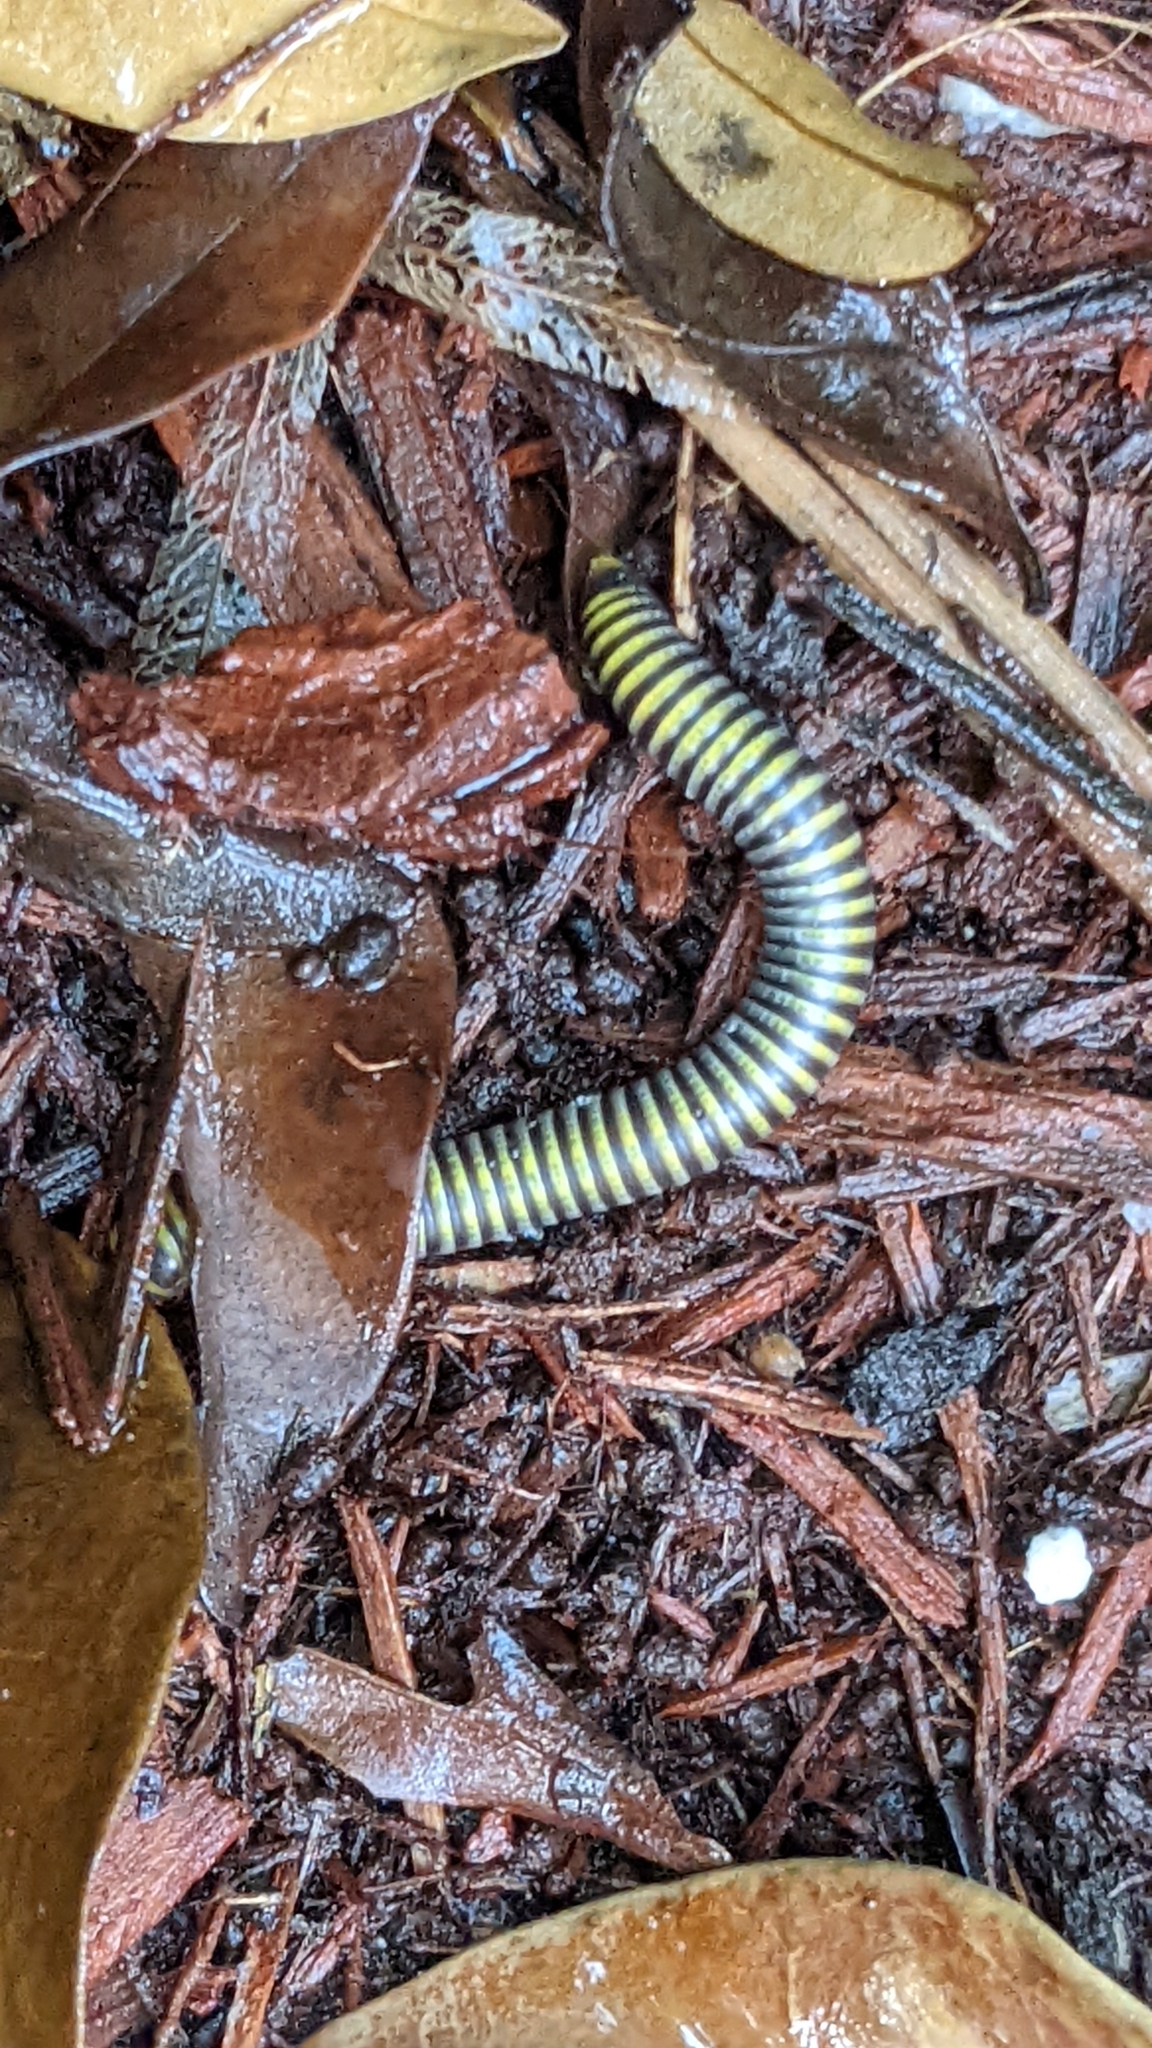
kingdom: Animalia
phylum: Arthropoda
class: Diplopoda
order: Spirobolida
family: Rhinocricidae
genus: Anadenobolus
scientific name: Anadenobolus monilicornis
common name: Caribbean millipede
